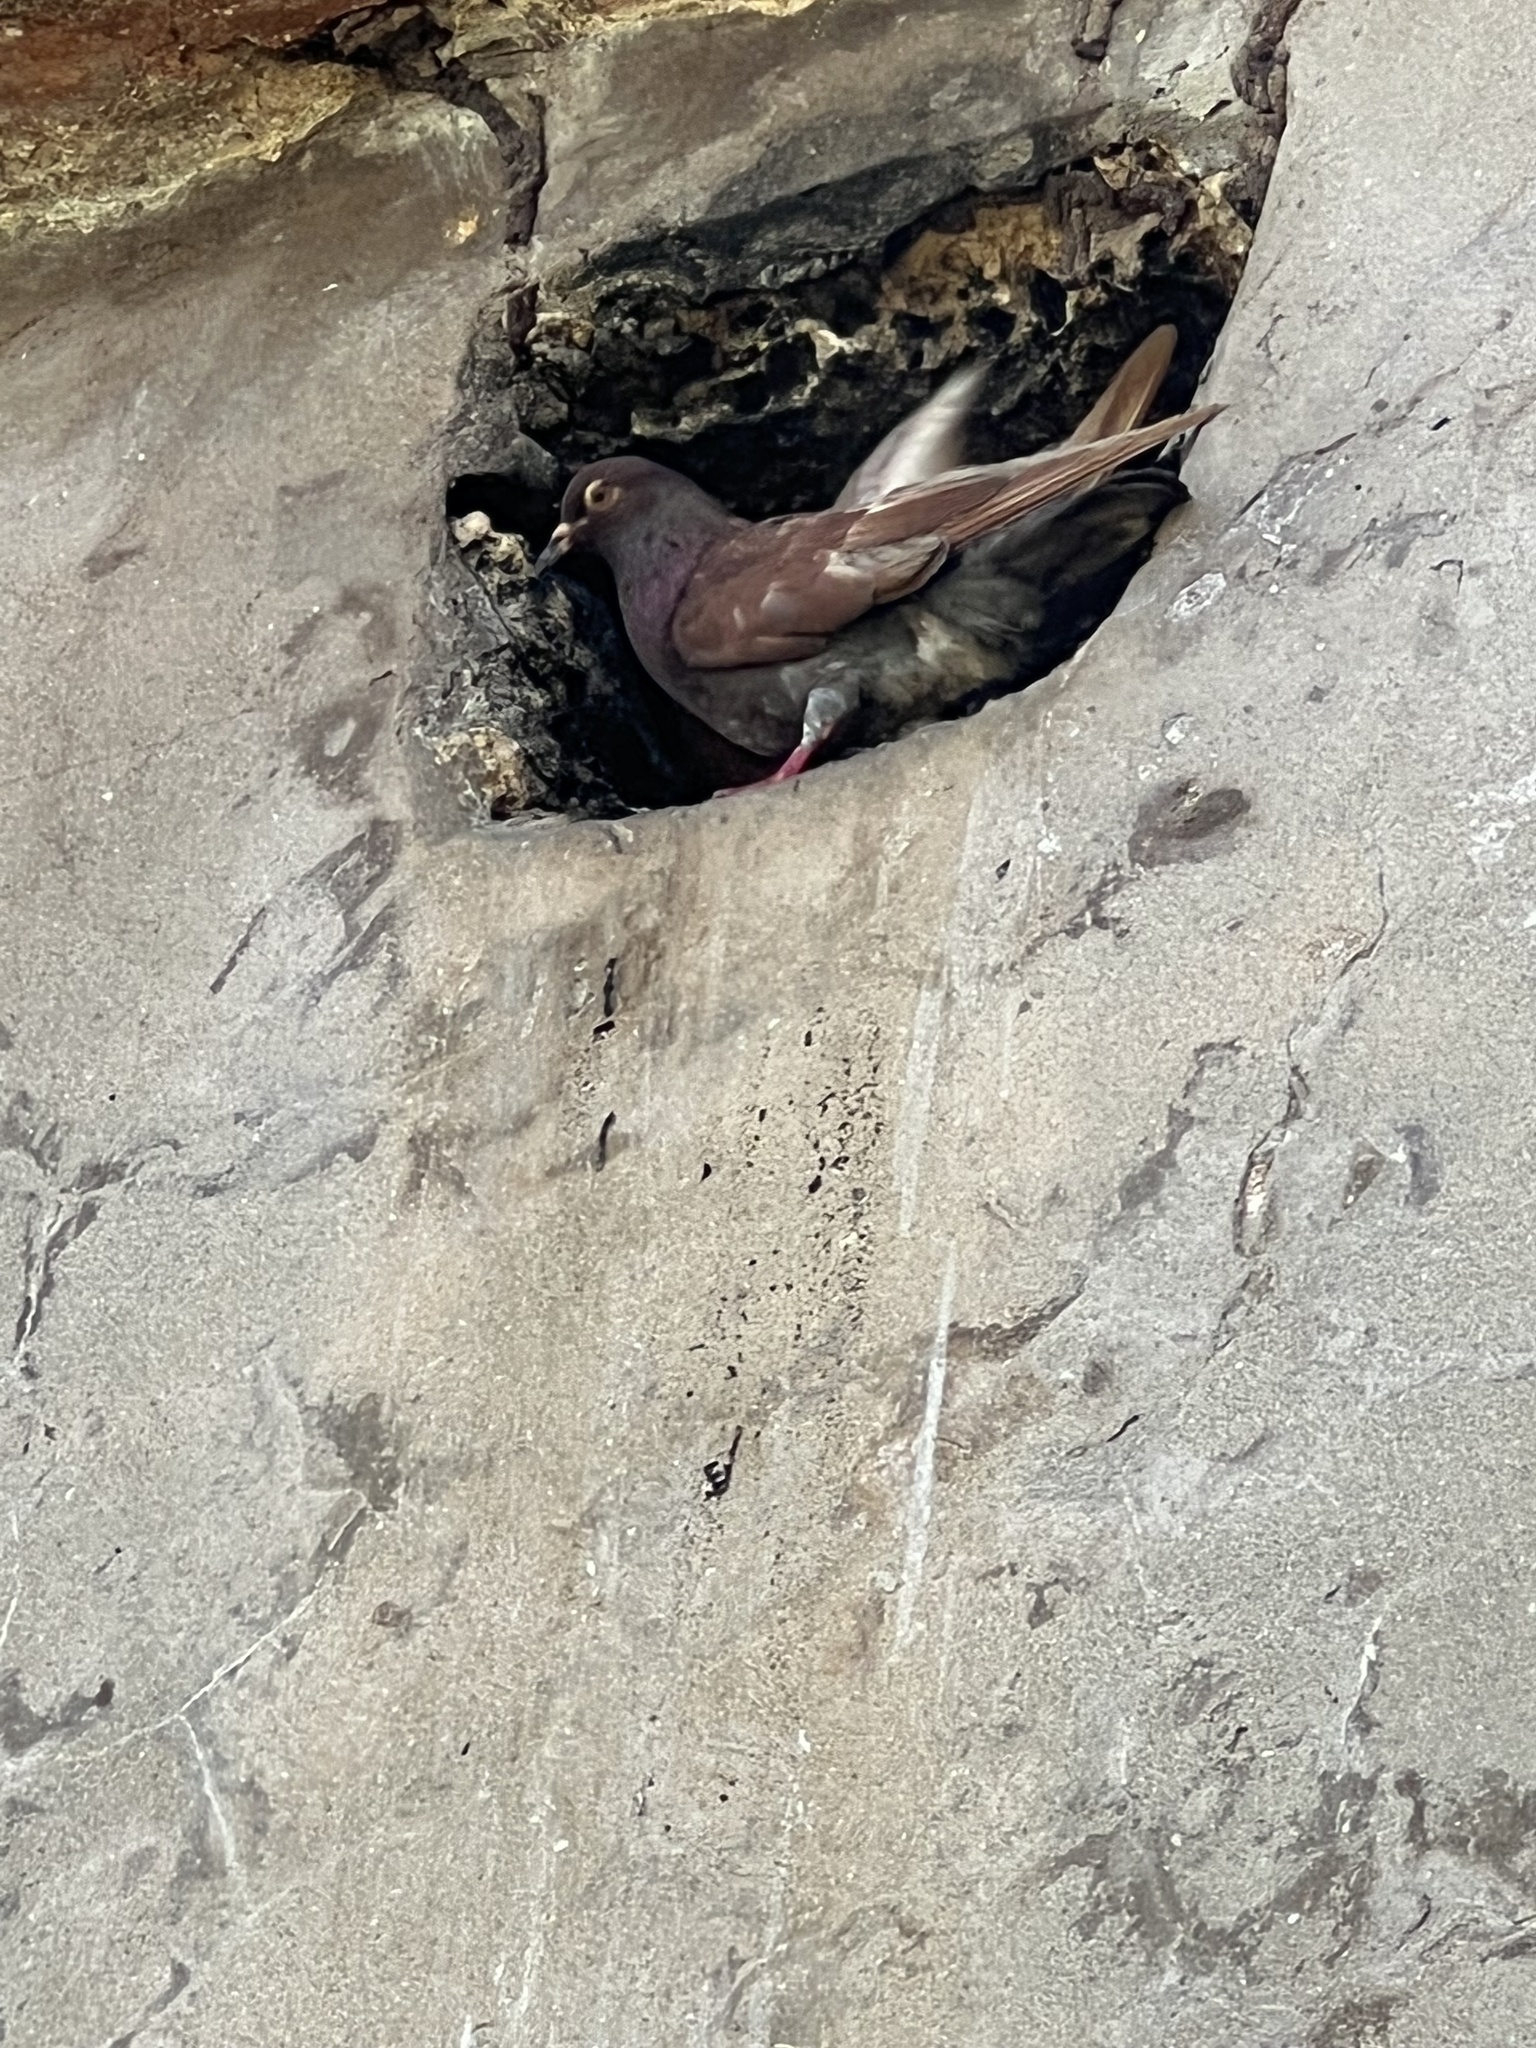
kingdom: Animalia
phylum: Chordata
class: Aves
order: Columbiformes
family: Columbidae
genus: Columba
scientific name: Columba livia
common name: Rock pigeon
